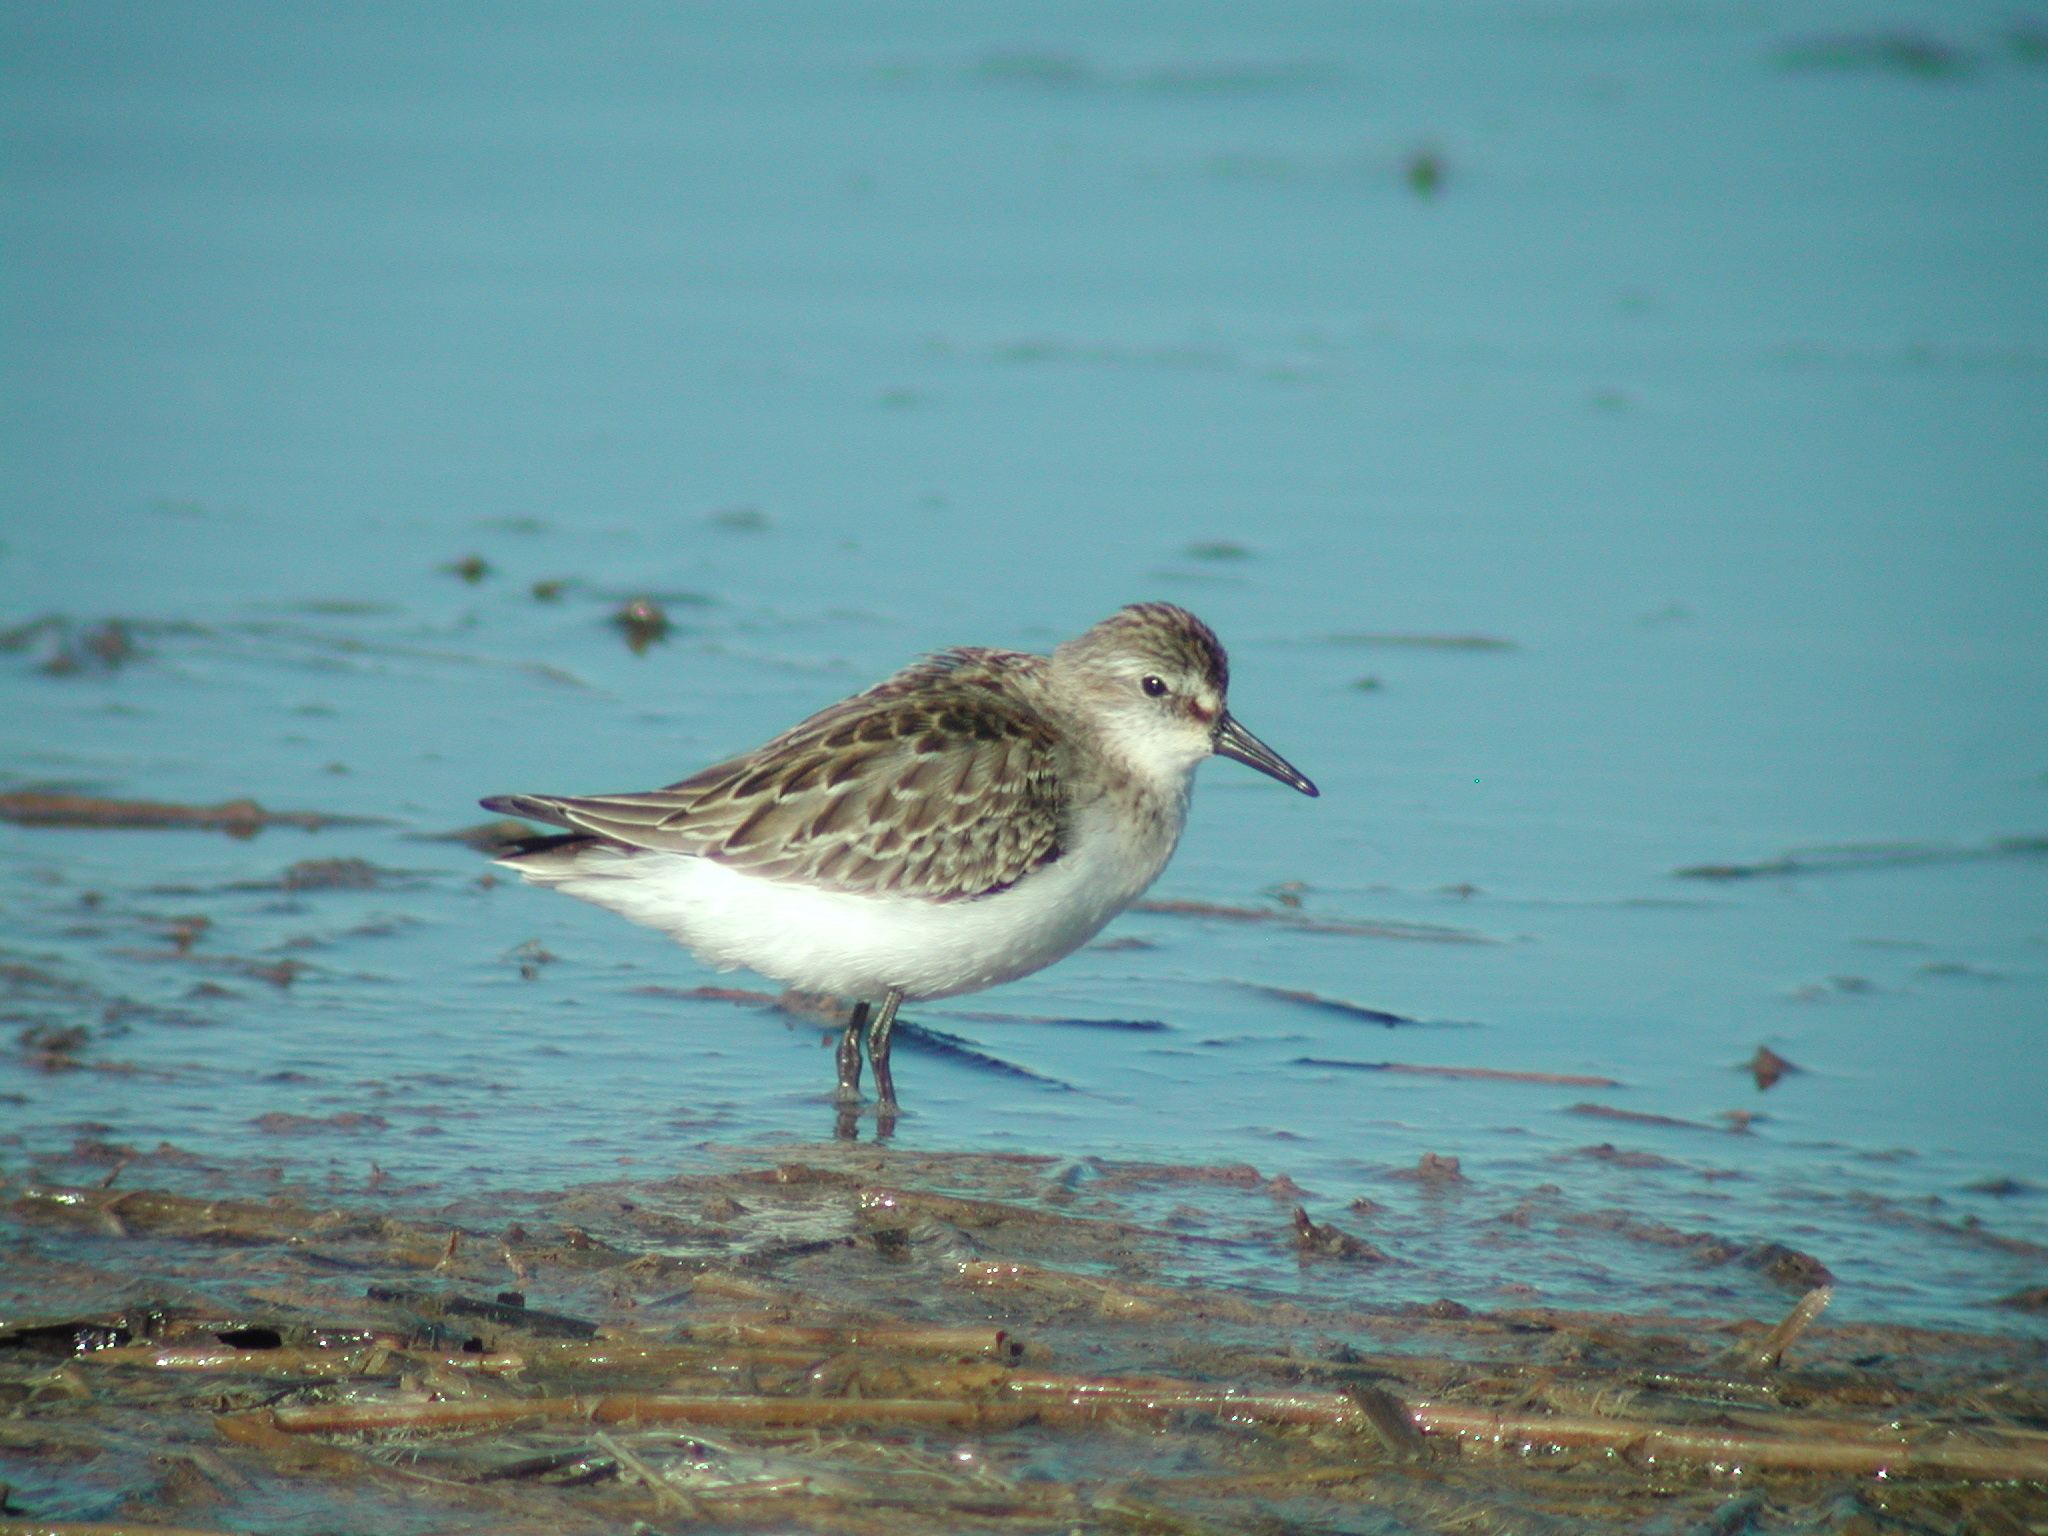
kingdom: Animalia
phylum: Chordata
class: Aves
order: Charadriiformes
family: Scolopacidae
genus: Calidris
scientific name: Calidris pusilla
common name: Semipalmated sandpiper
